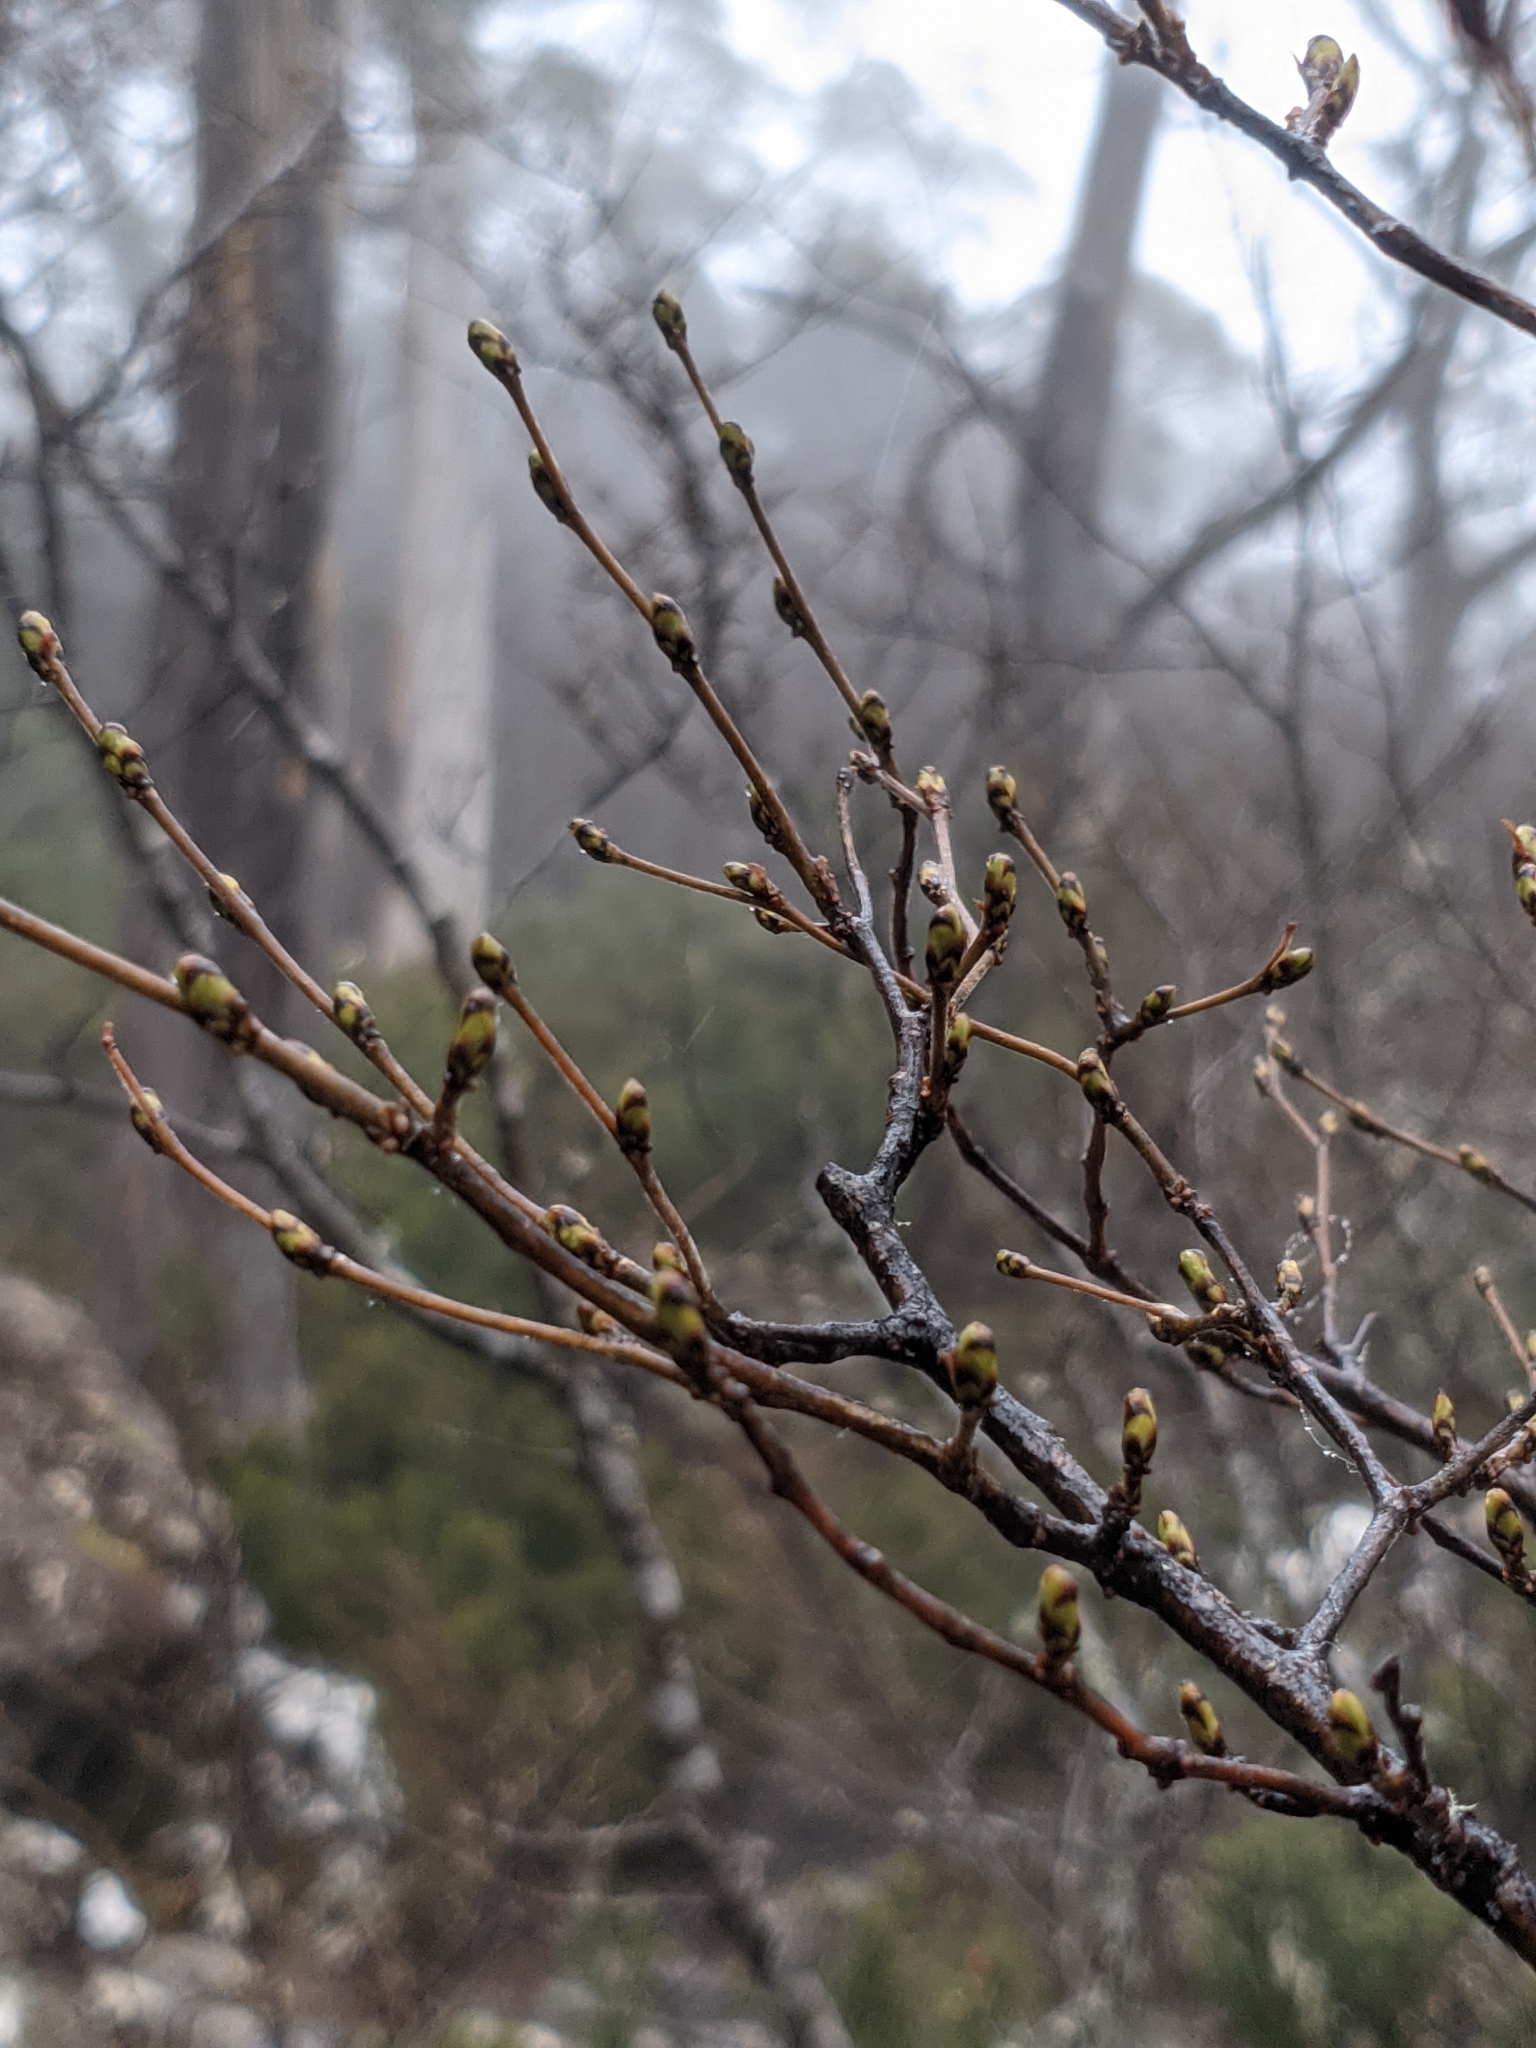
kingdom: Plantae
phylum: Tracheophyta
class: Magnoliopsida
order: Fagales
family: Nothofagaceae
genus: Nothofagus
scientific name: Nothofagus gunnii
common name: Tanglefoot
